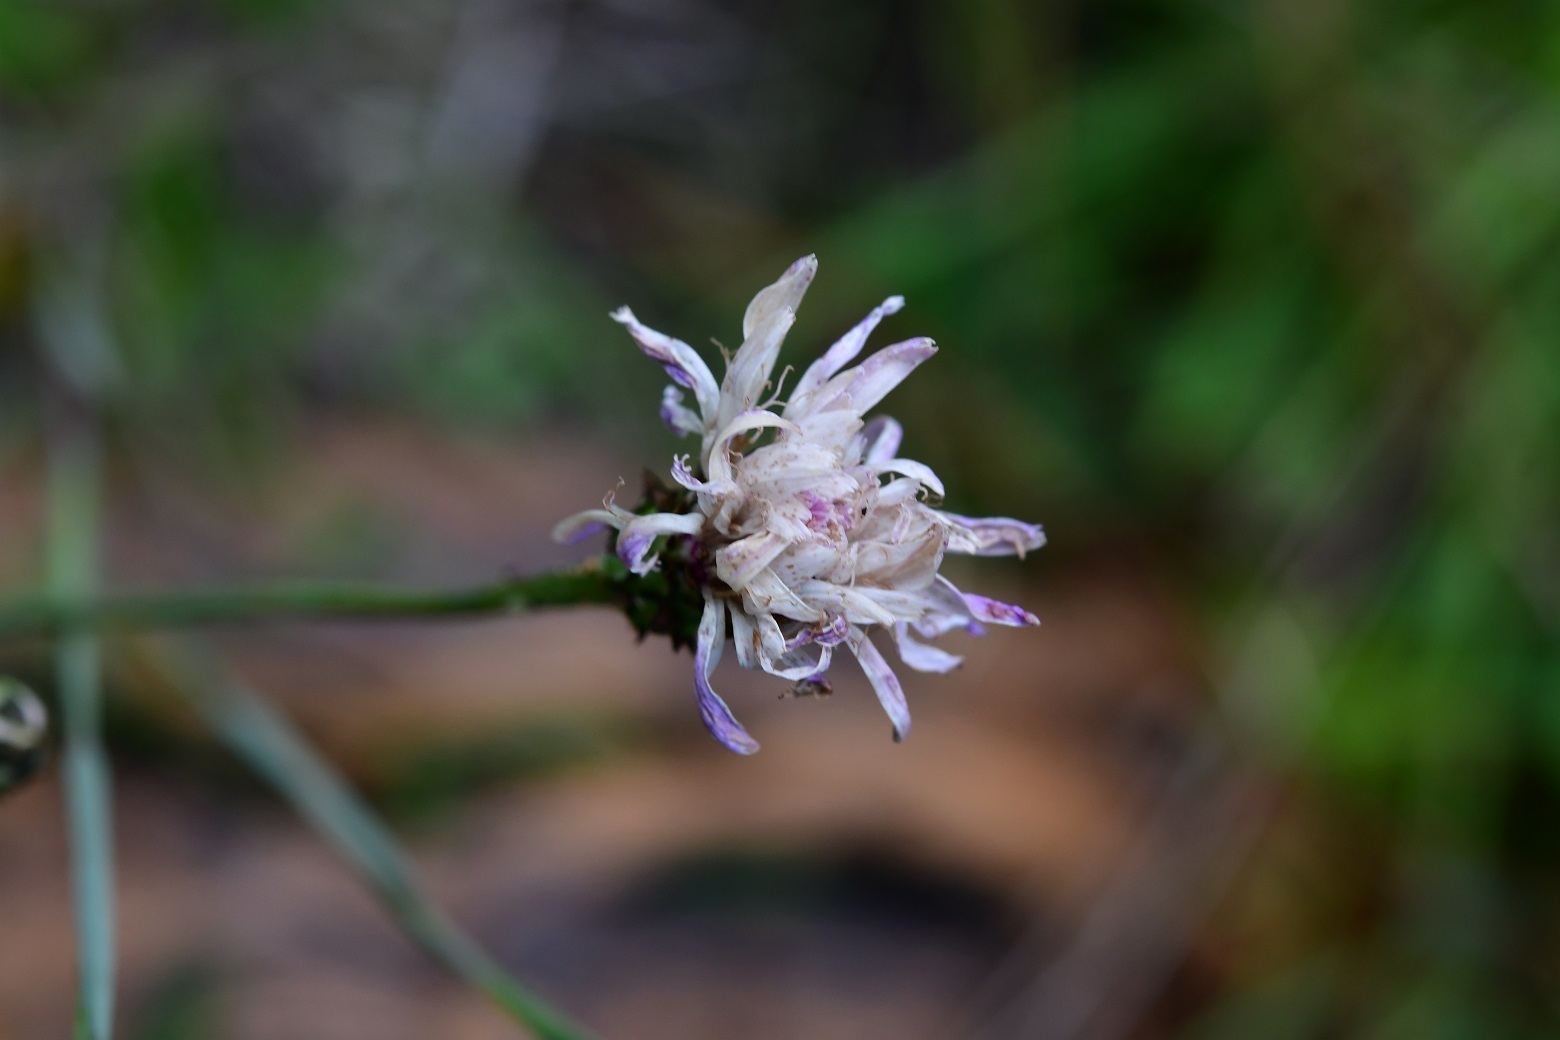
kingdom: Plantae
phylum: Tracheophyta
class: Magnoliopsida
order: Asterales
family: Asteraceae
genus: Pinaropappus
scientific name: Pinaropappus spathulatus
